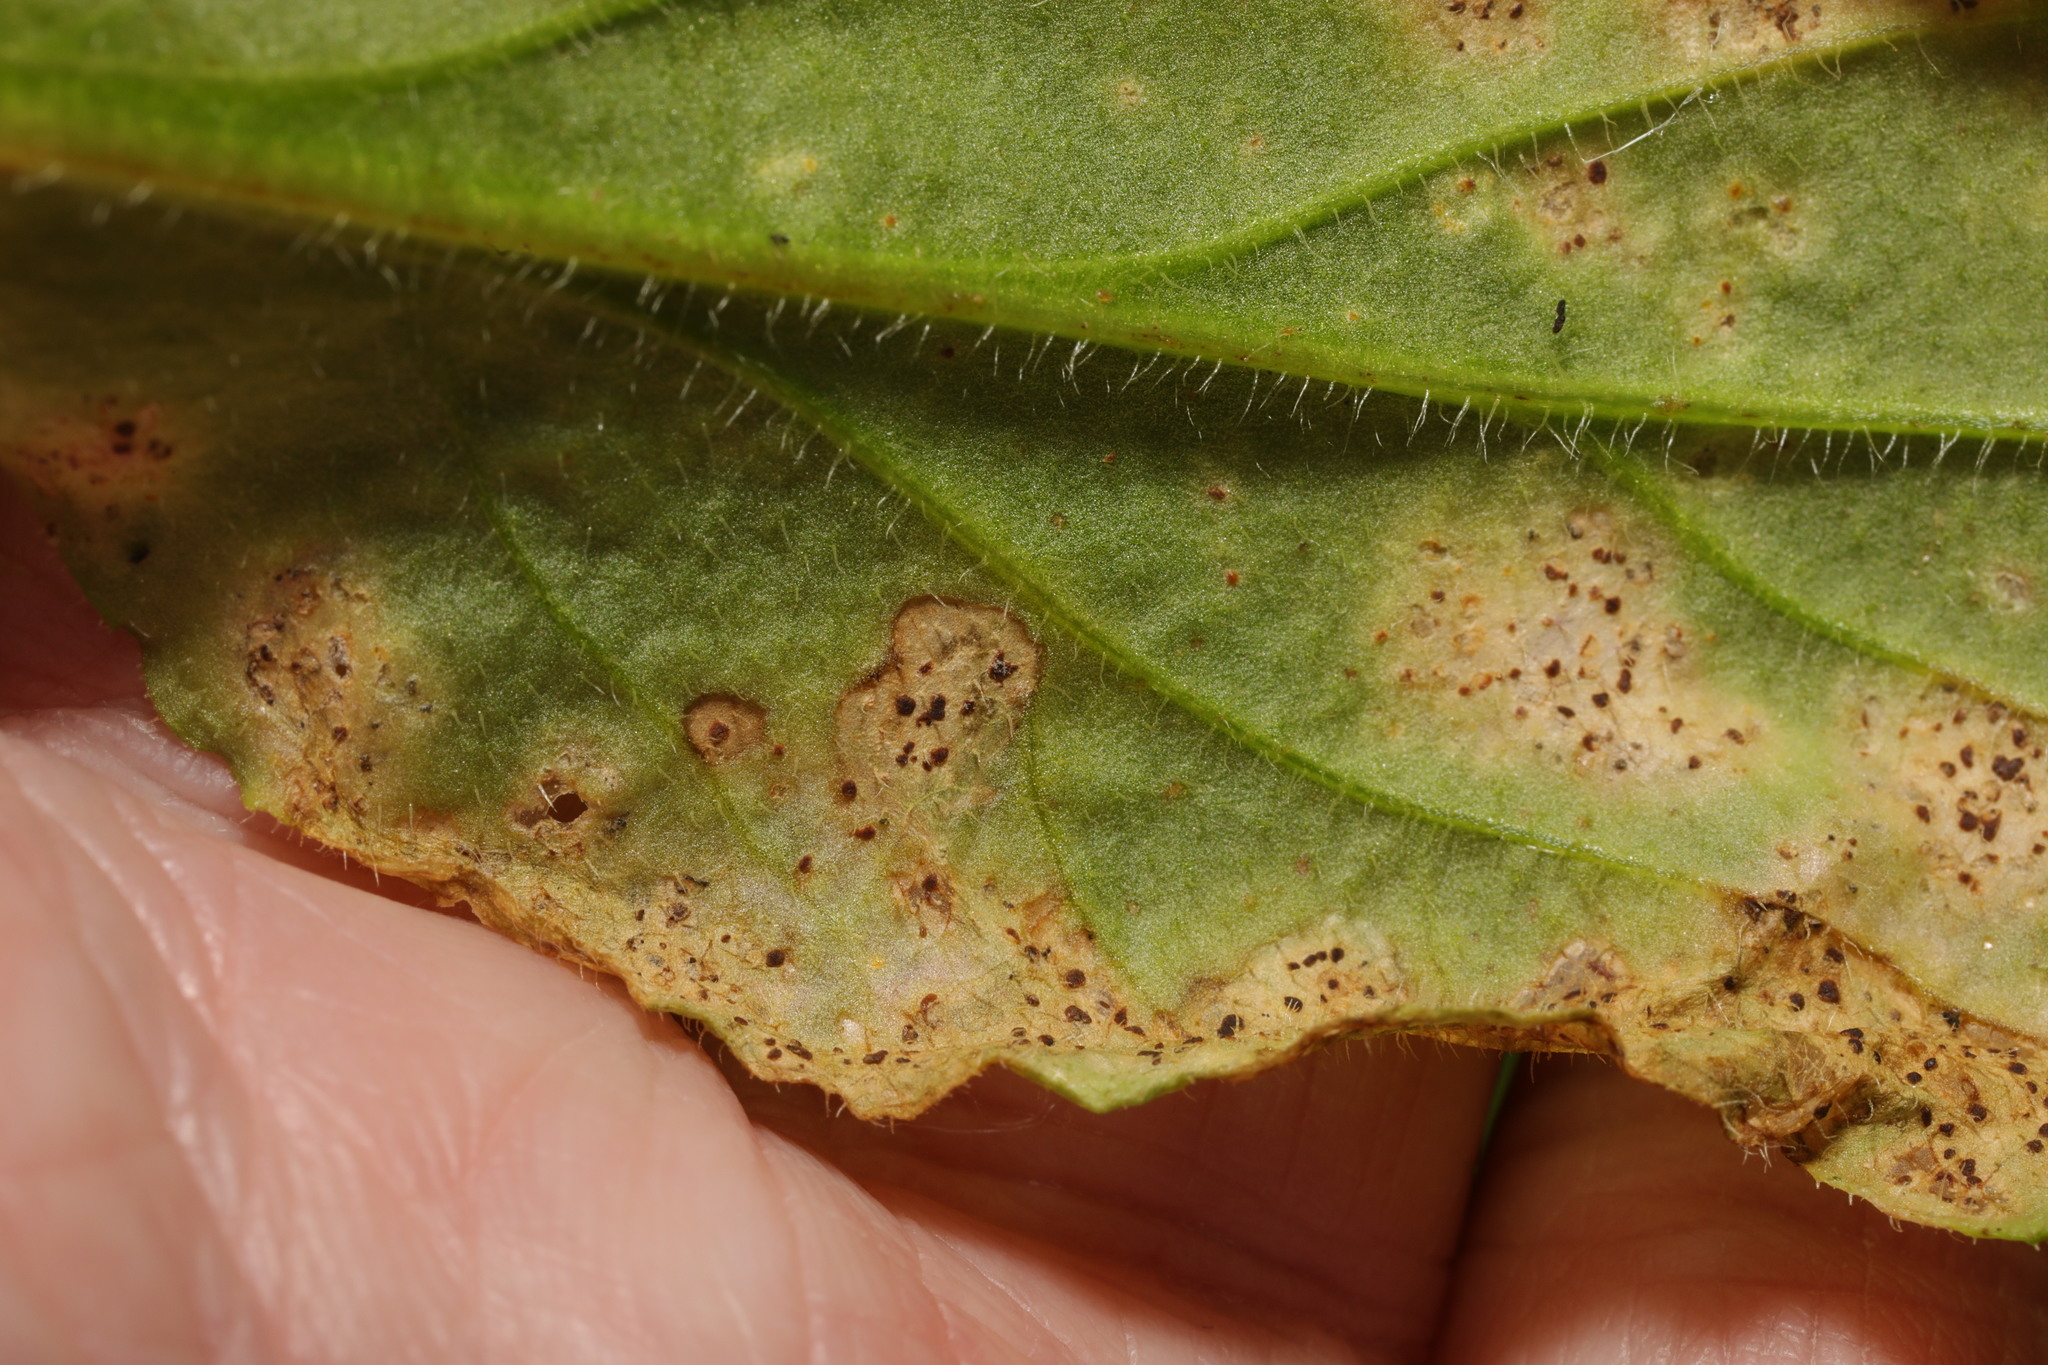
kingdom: Fungi
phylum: Basidiomycota
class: Pucciniomycetes
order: Pucciniales
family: Pucciniaceae
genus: Puccinia
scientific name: Puccinia behenis
